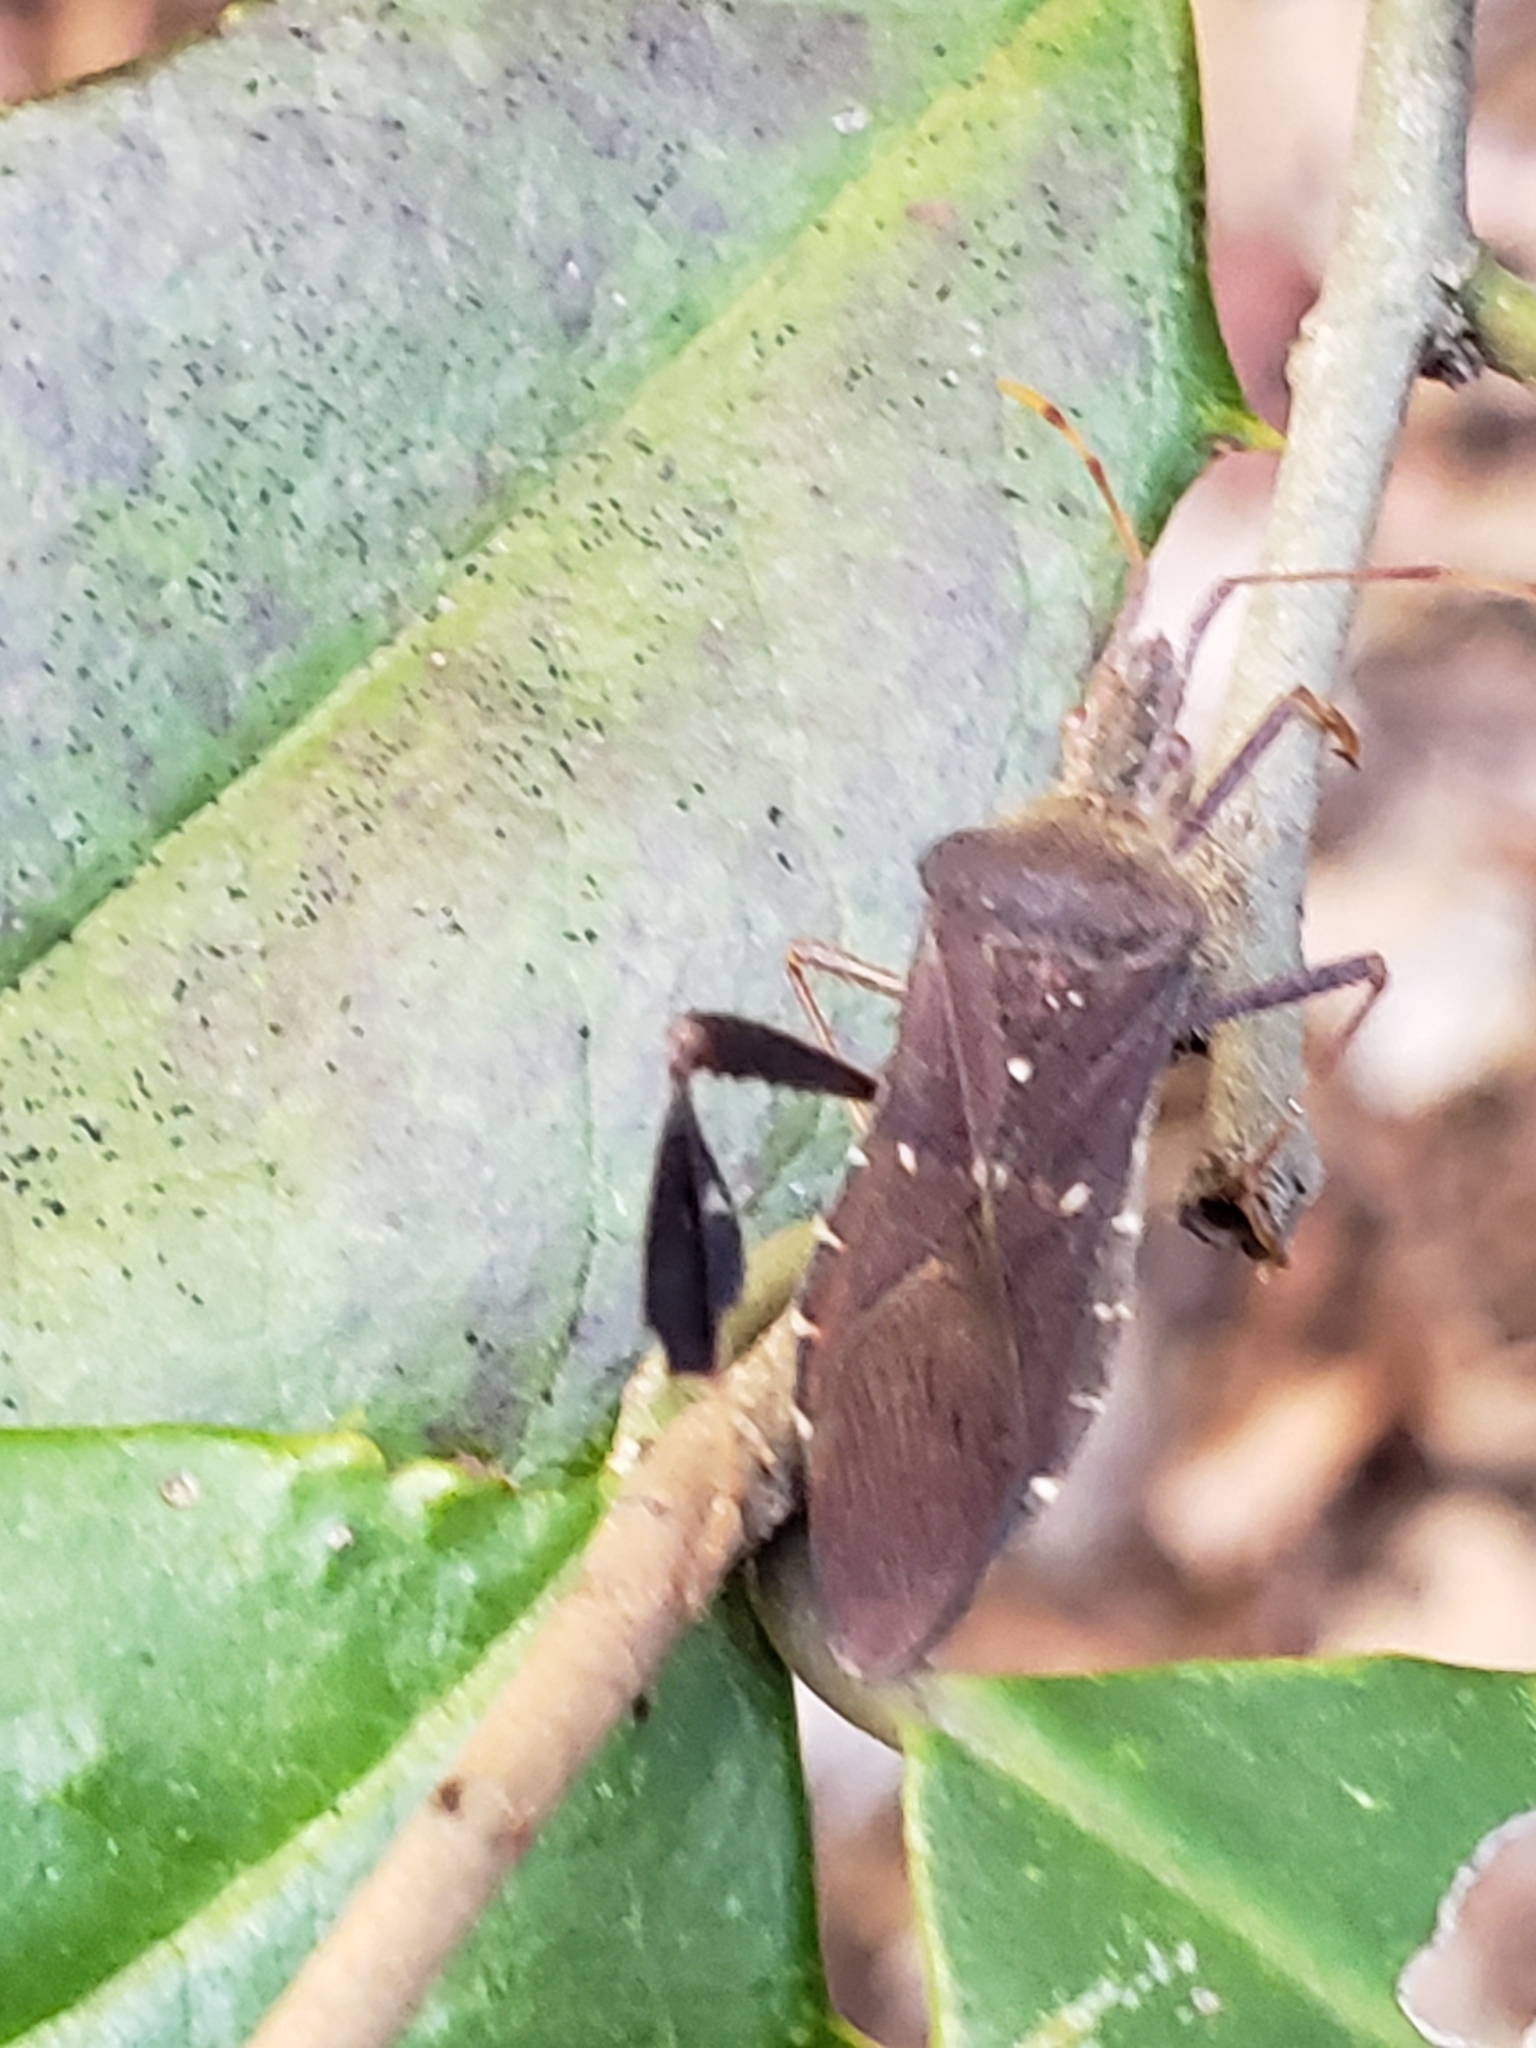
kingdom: Animalia
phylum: Arthropoda
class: Insecta
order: Hemiptera
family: Coreidae
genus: Leptoglossus
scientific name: Leptoglossus oppositus
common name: Northern leaf-footed bug
